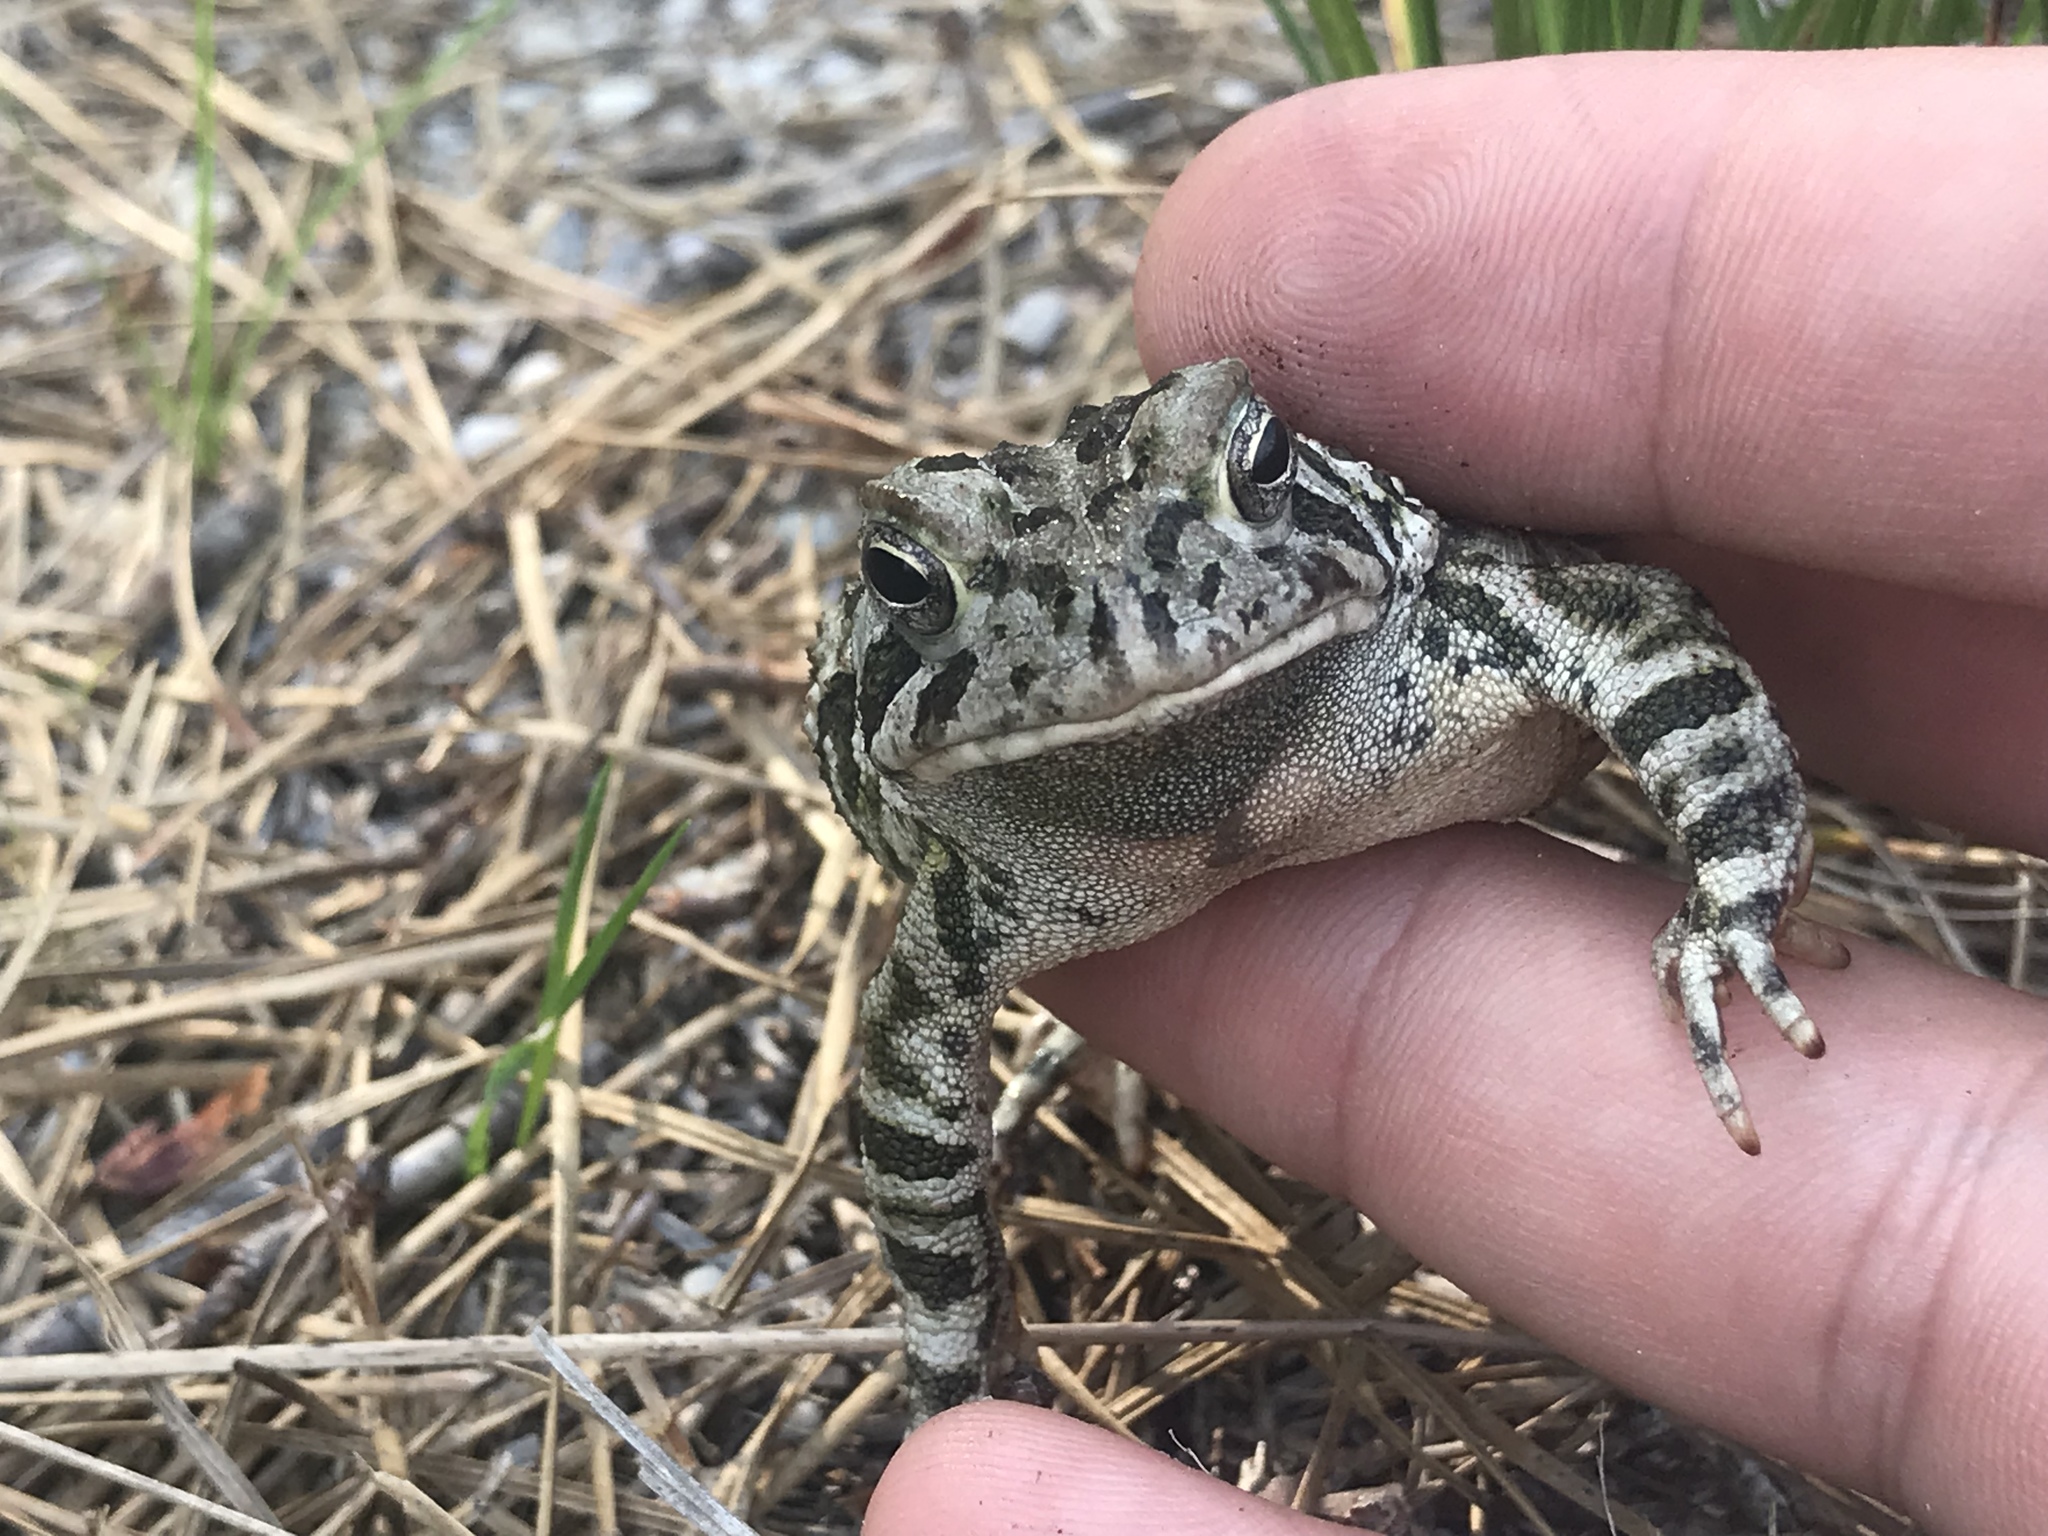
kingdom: Animalia
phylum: Chordata
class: Amphibia
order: Anura
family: Bufonidae
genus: Anaxyrus
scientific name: Anaxyrus fowleri
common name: Fowler's toad
